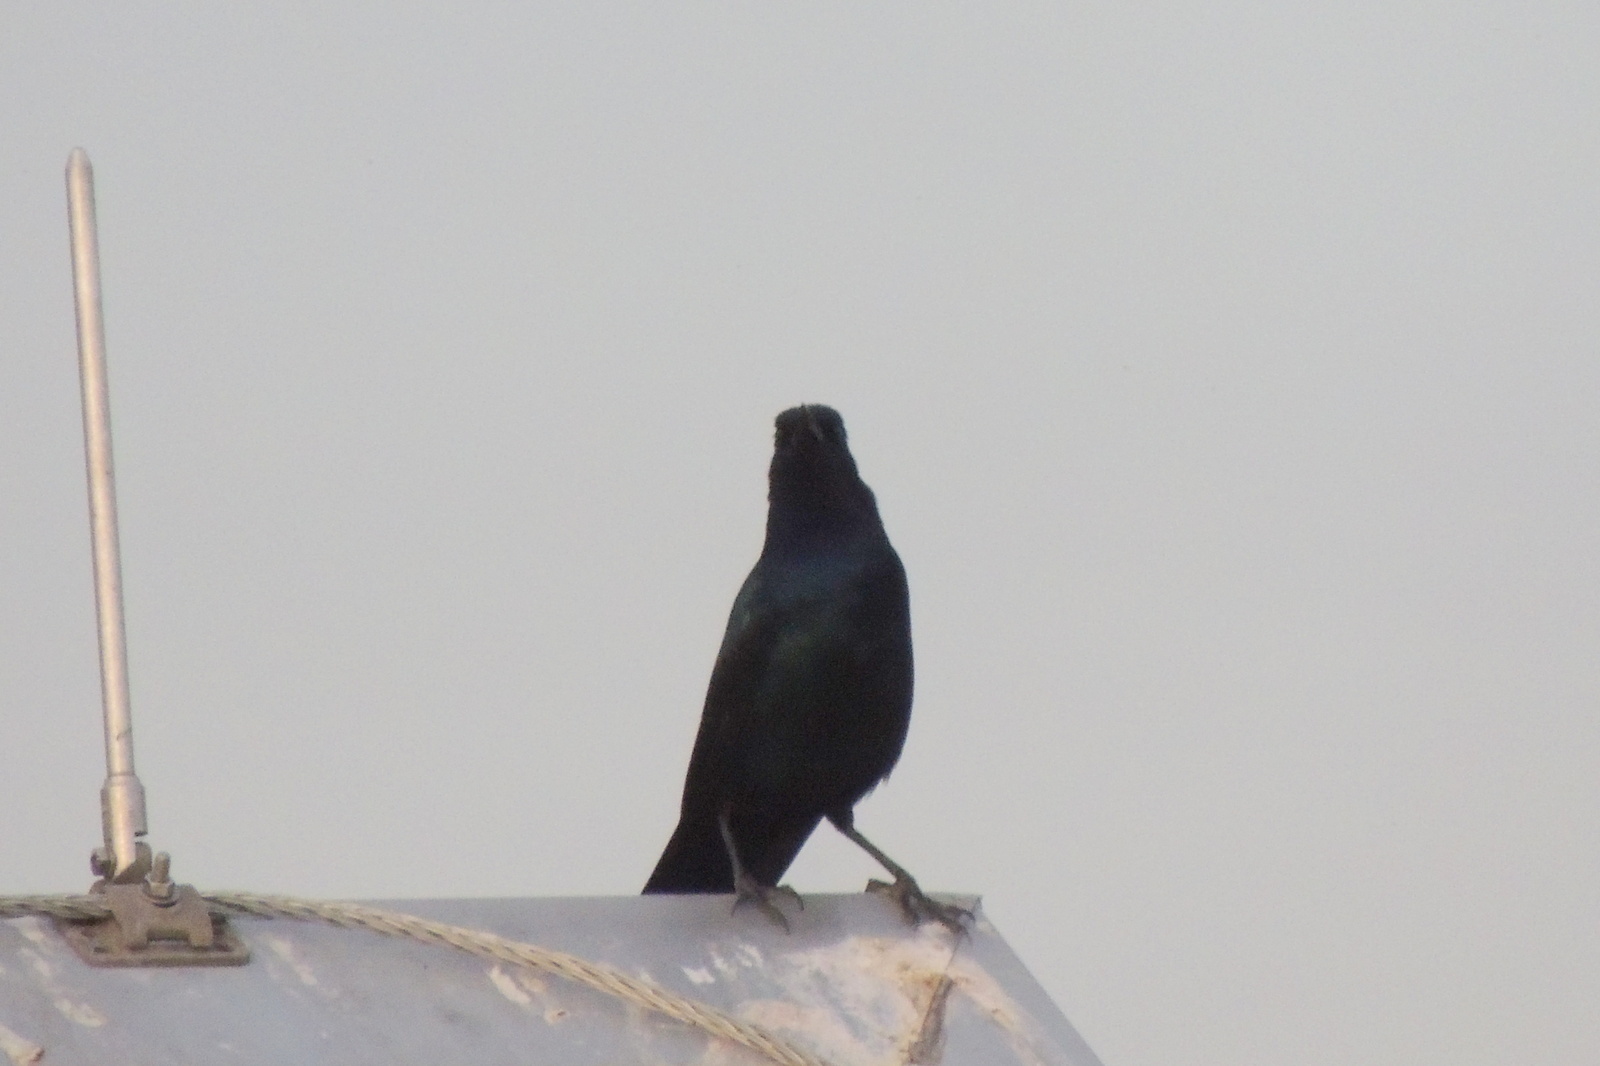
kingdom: Animalia
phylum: Chordata
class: Aves
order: Passeriformes
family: Icteridae
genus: Quiscalus
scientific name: Quiscalus major
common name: Boat-tailed grackle
